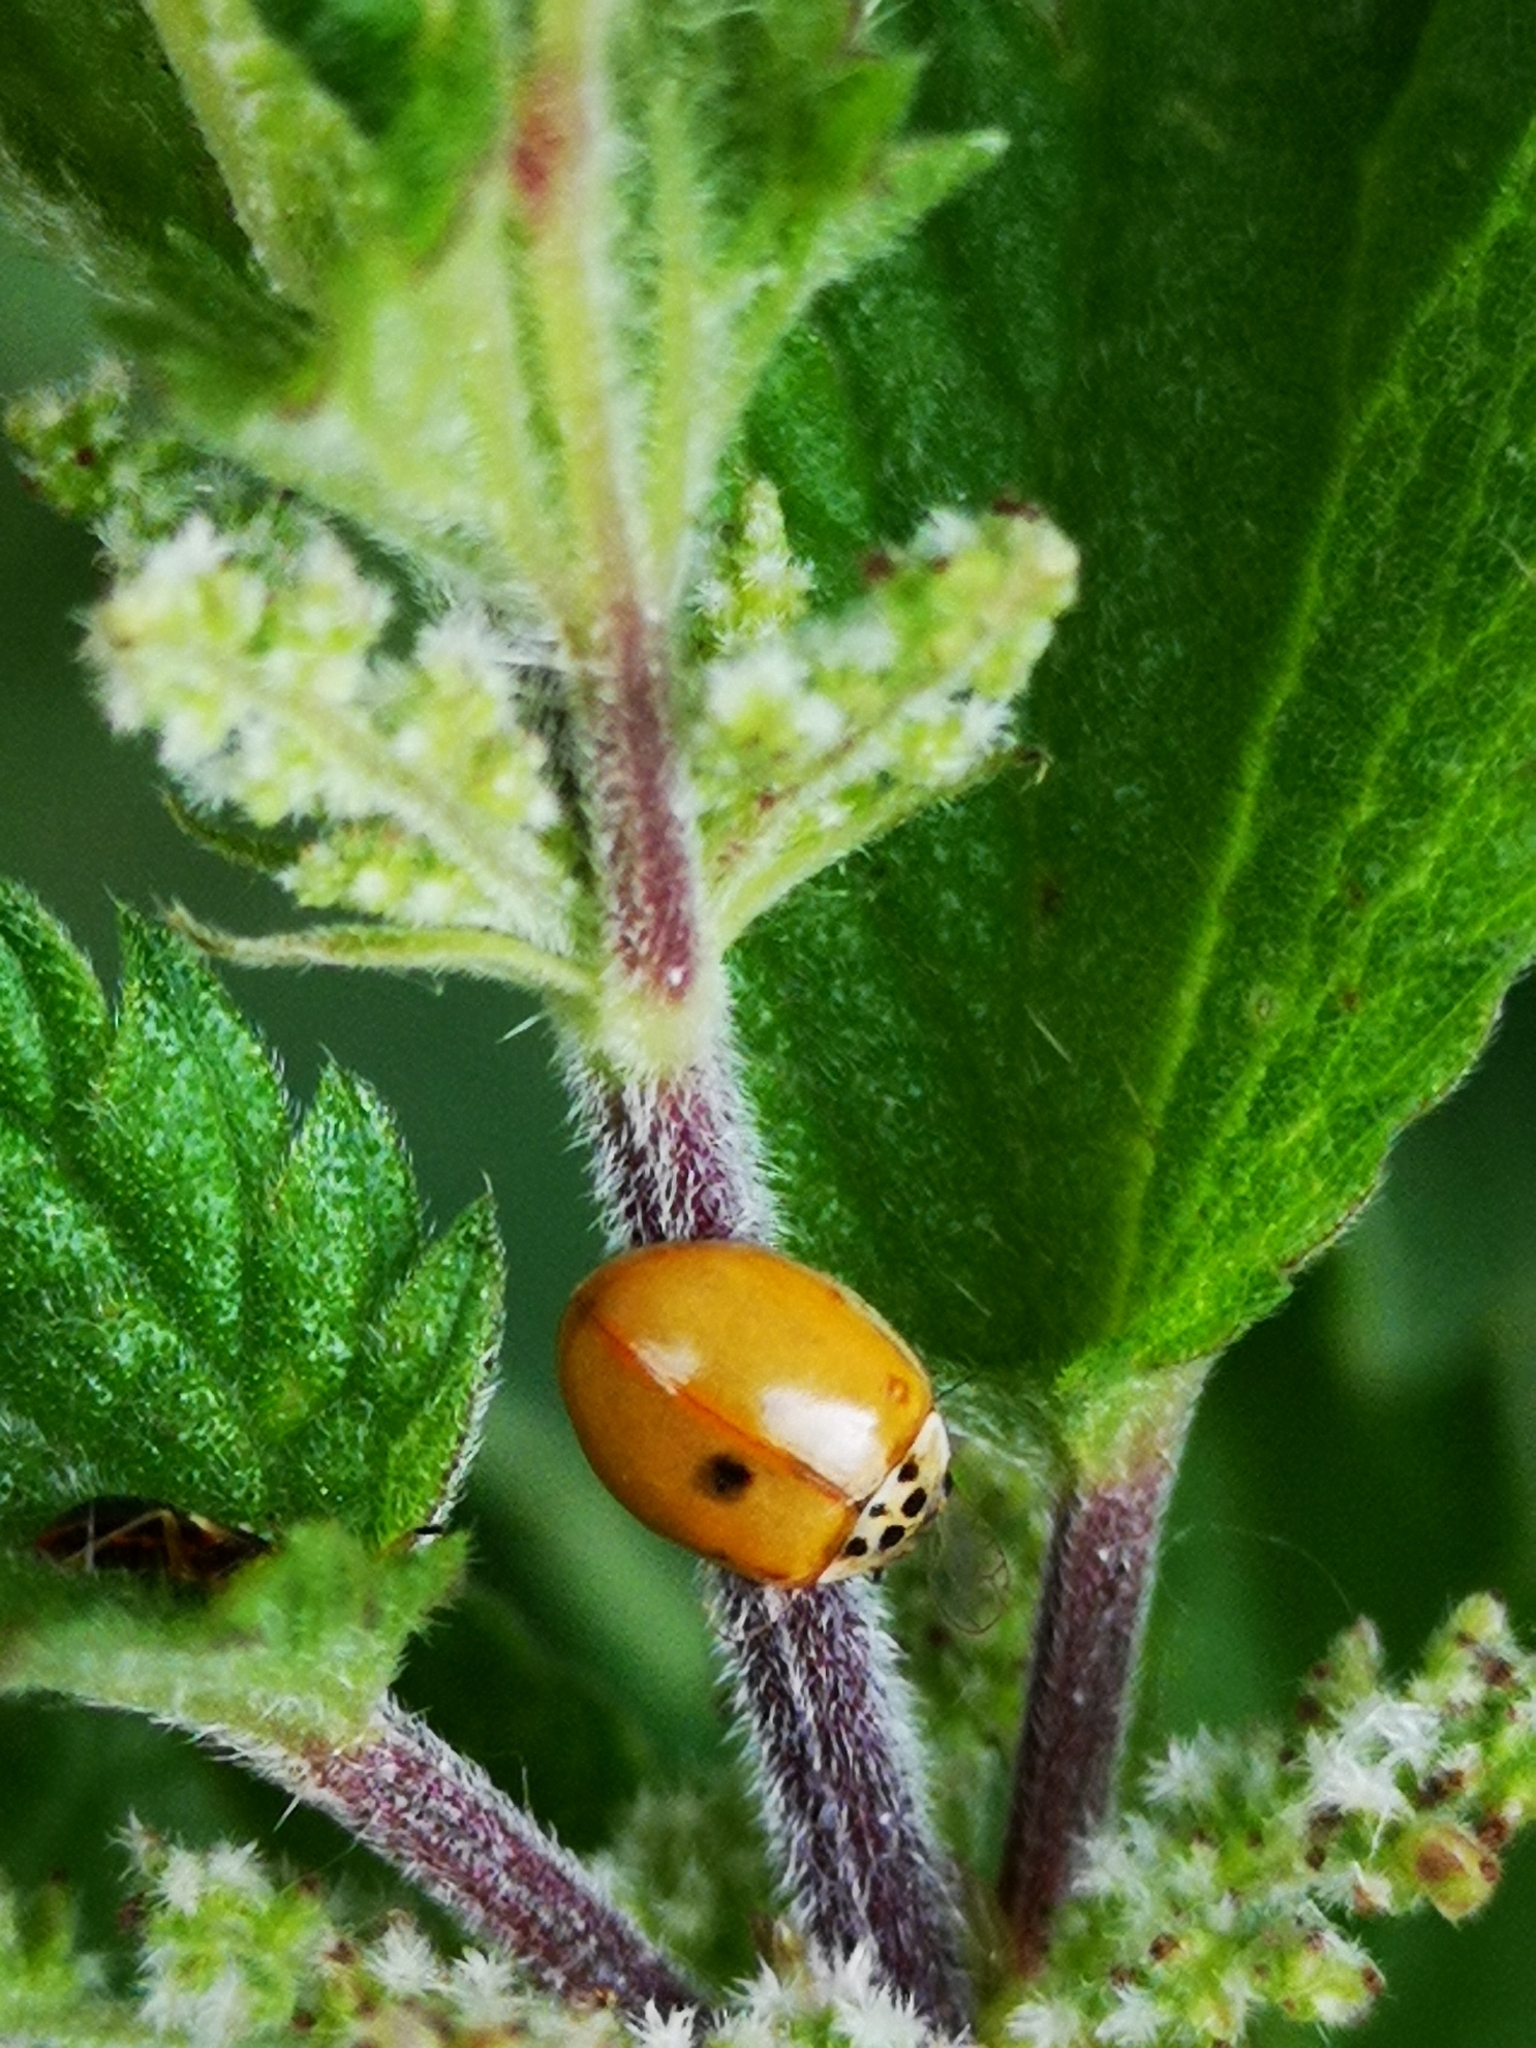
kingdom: Animalia
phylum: Arthropoda
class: Insecta
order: Coleoptera
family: Coccinellidae
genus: Adalia
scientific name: Adalia decempunctata
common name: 10-spot ladybird
